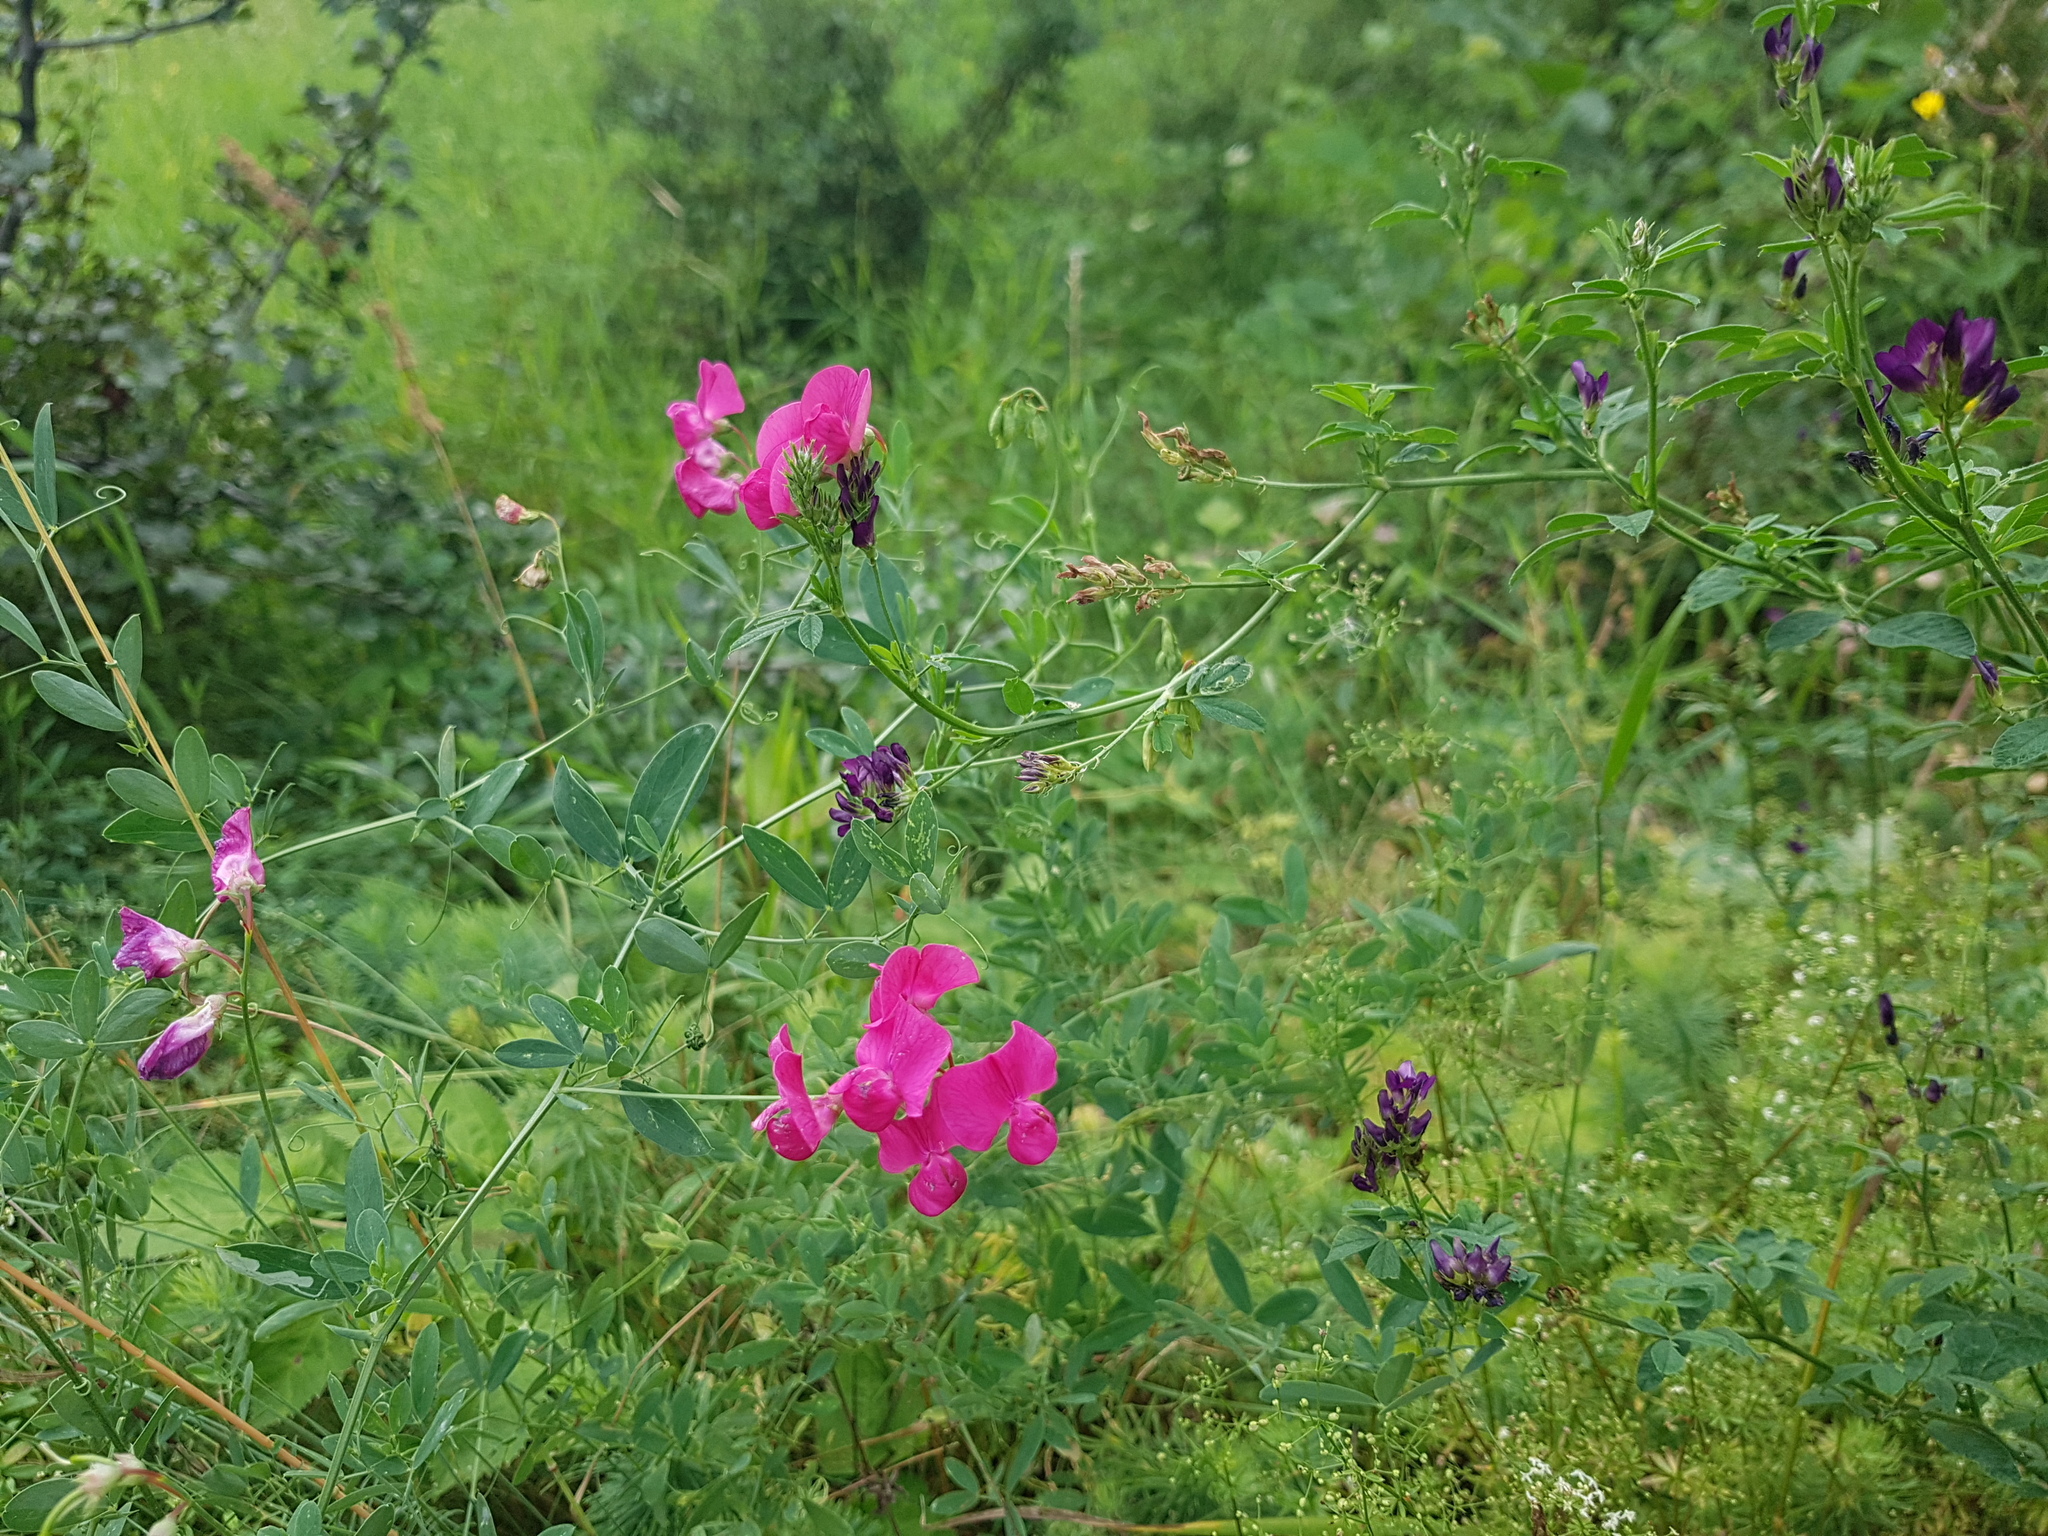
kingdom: Plantae
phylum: Tracheophyta
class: Magnoliopsida
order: Fabales
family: Fabaceae
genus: Lathyrus
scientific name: Lathyrus tuberosus
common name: Tuberous pea
